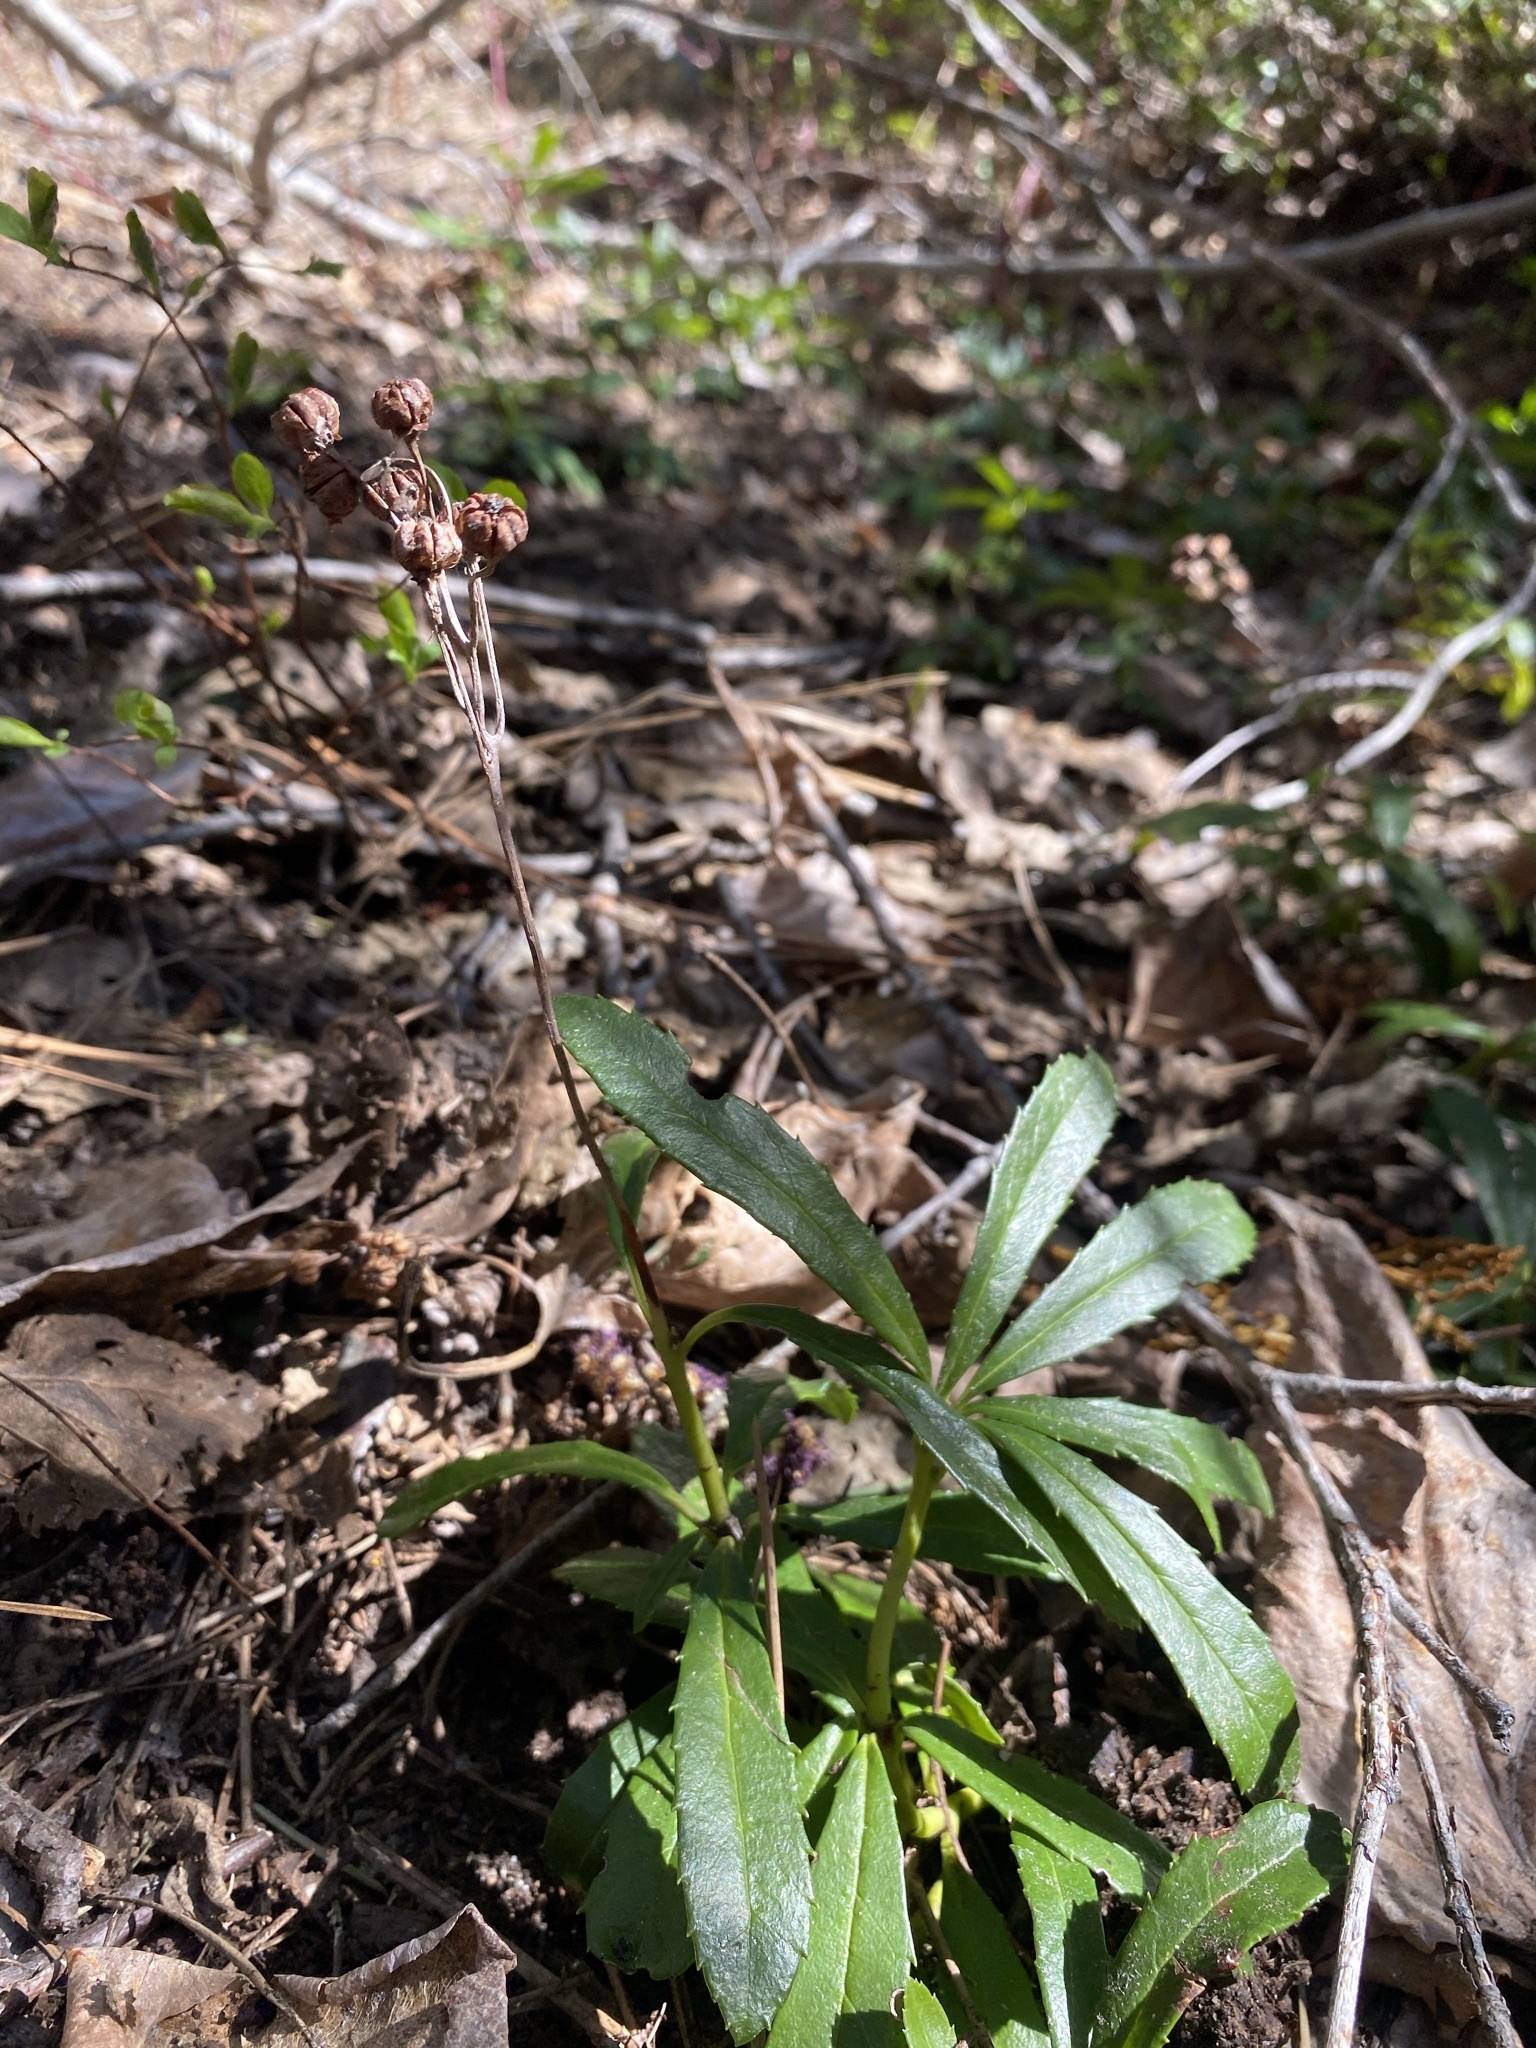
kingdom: Plantae
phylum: Tracheophyta
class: Magnoliopsida
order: Ericales
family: Ericaceae
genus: Chimaphila
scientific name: Chimaphila umbellata
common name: Pipsissewa
